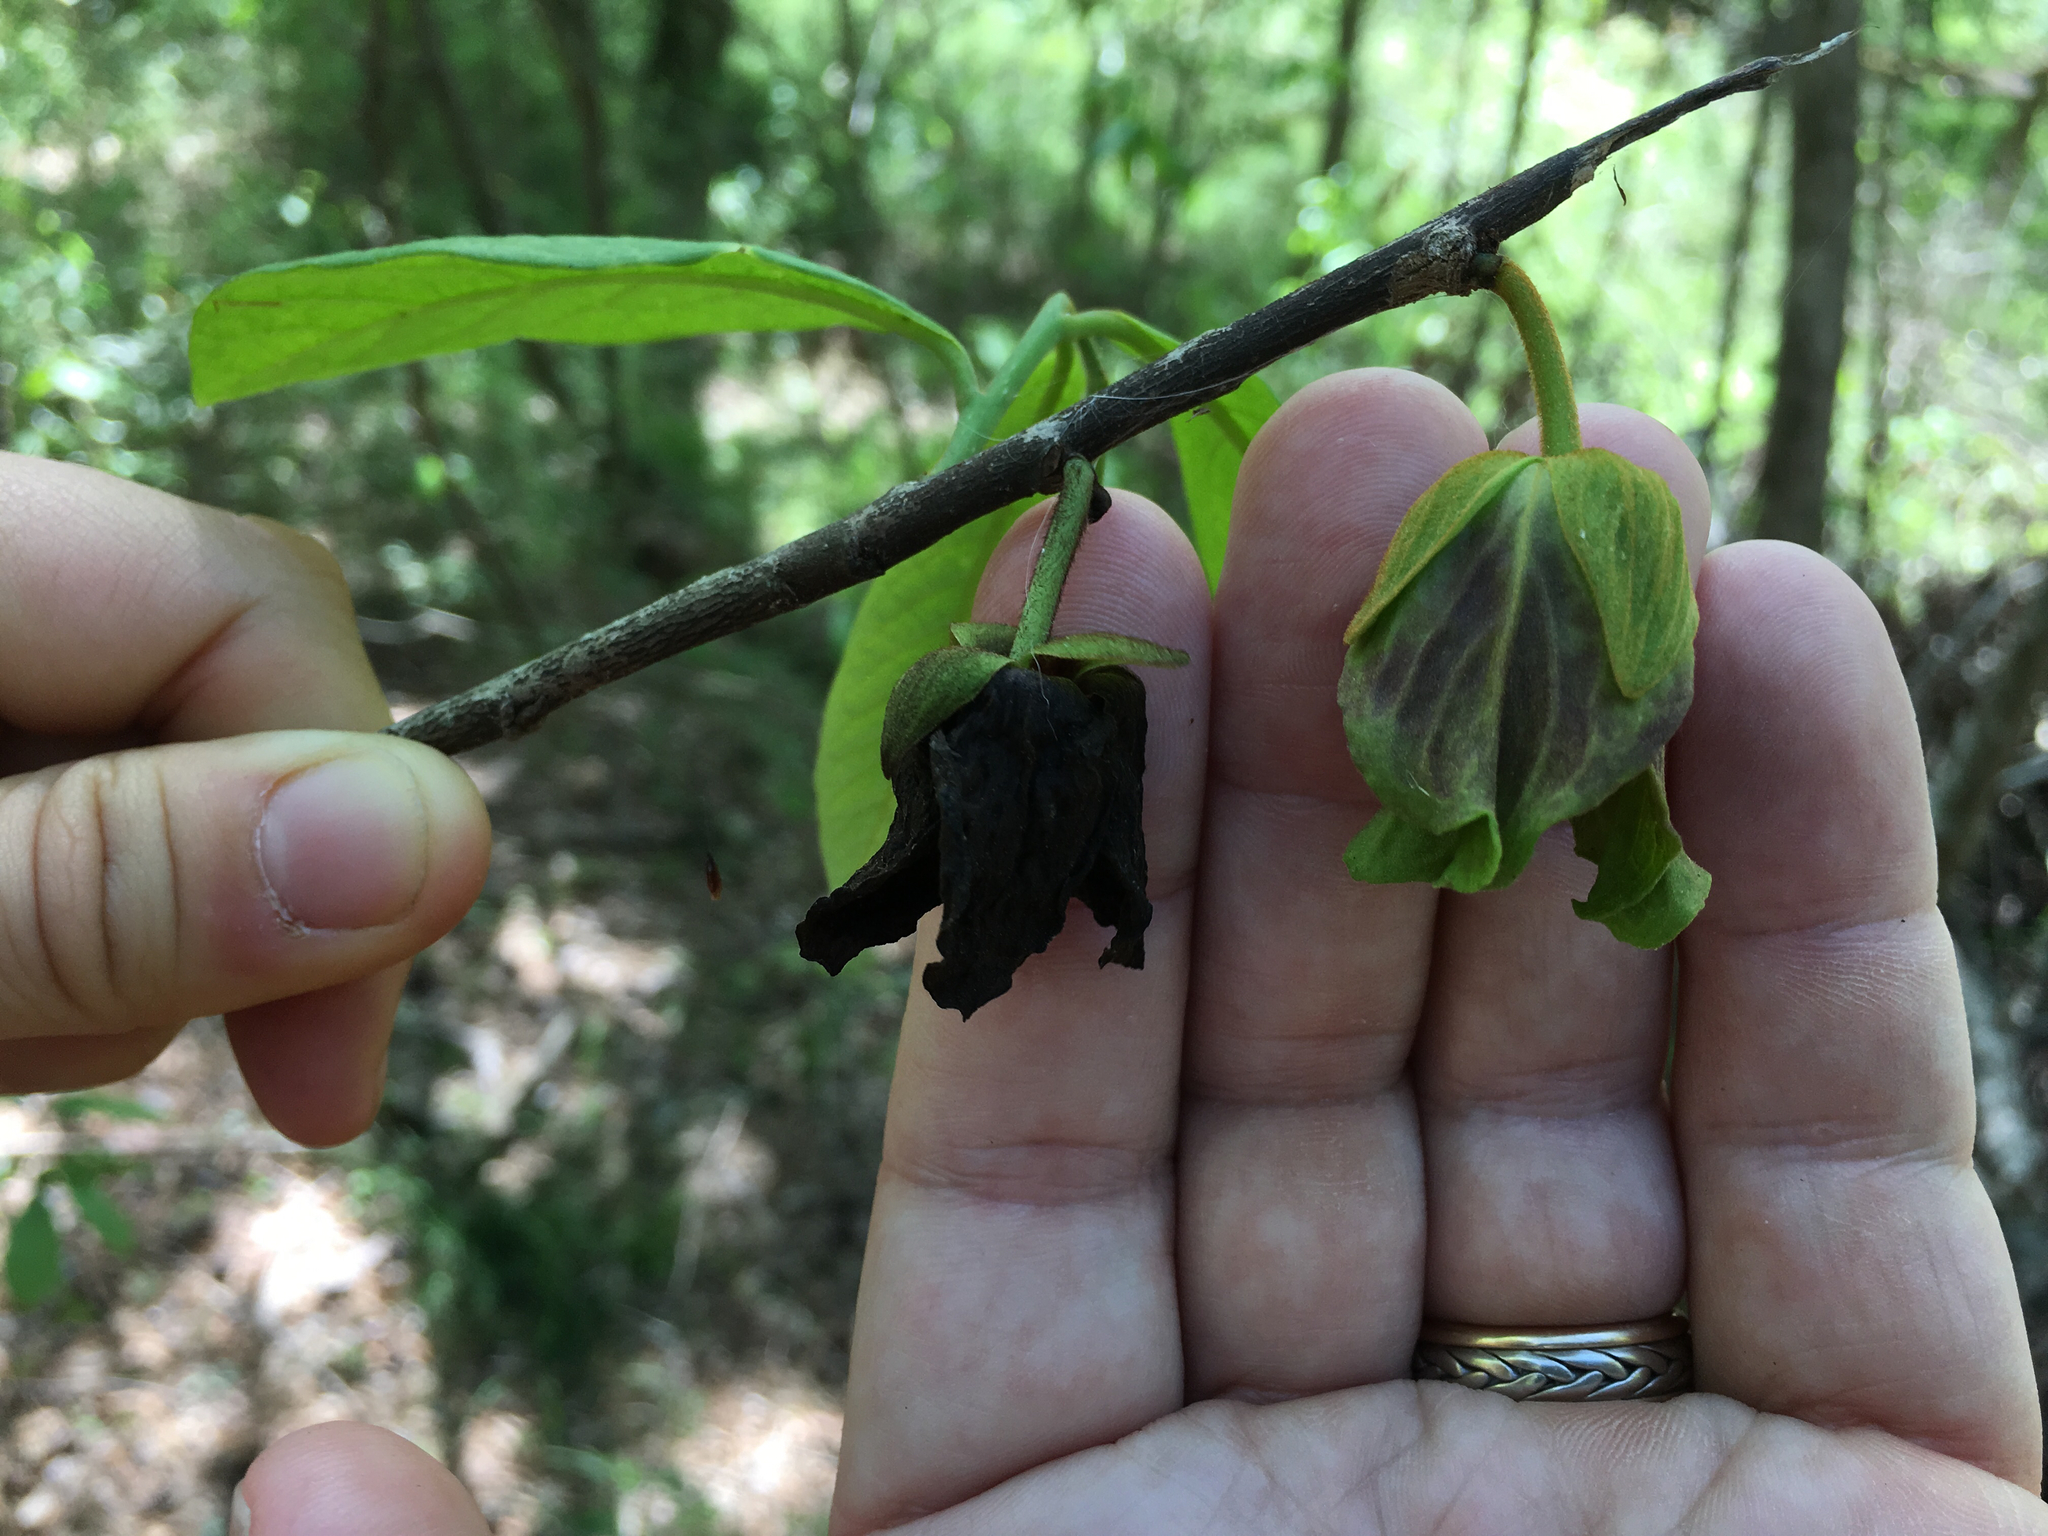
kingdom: Plantae
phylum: Tracheophyta
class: Magnoliopsida
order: Magnoliales
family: Annonaceae
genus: Asimina
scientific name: Asimina triloba
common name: Dog-banana
